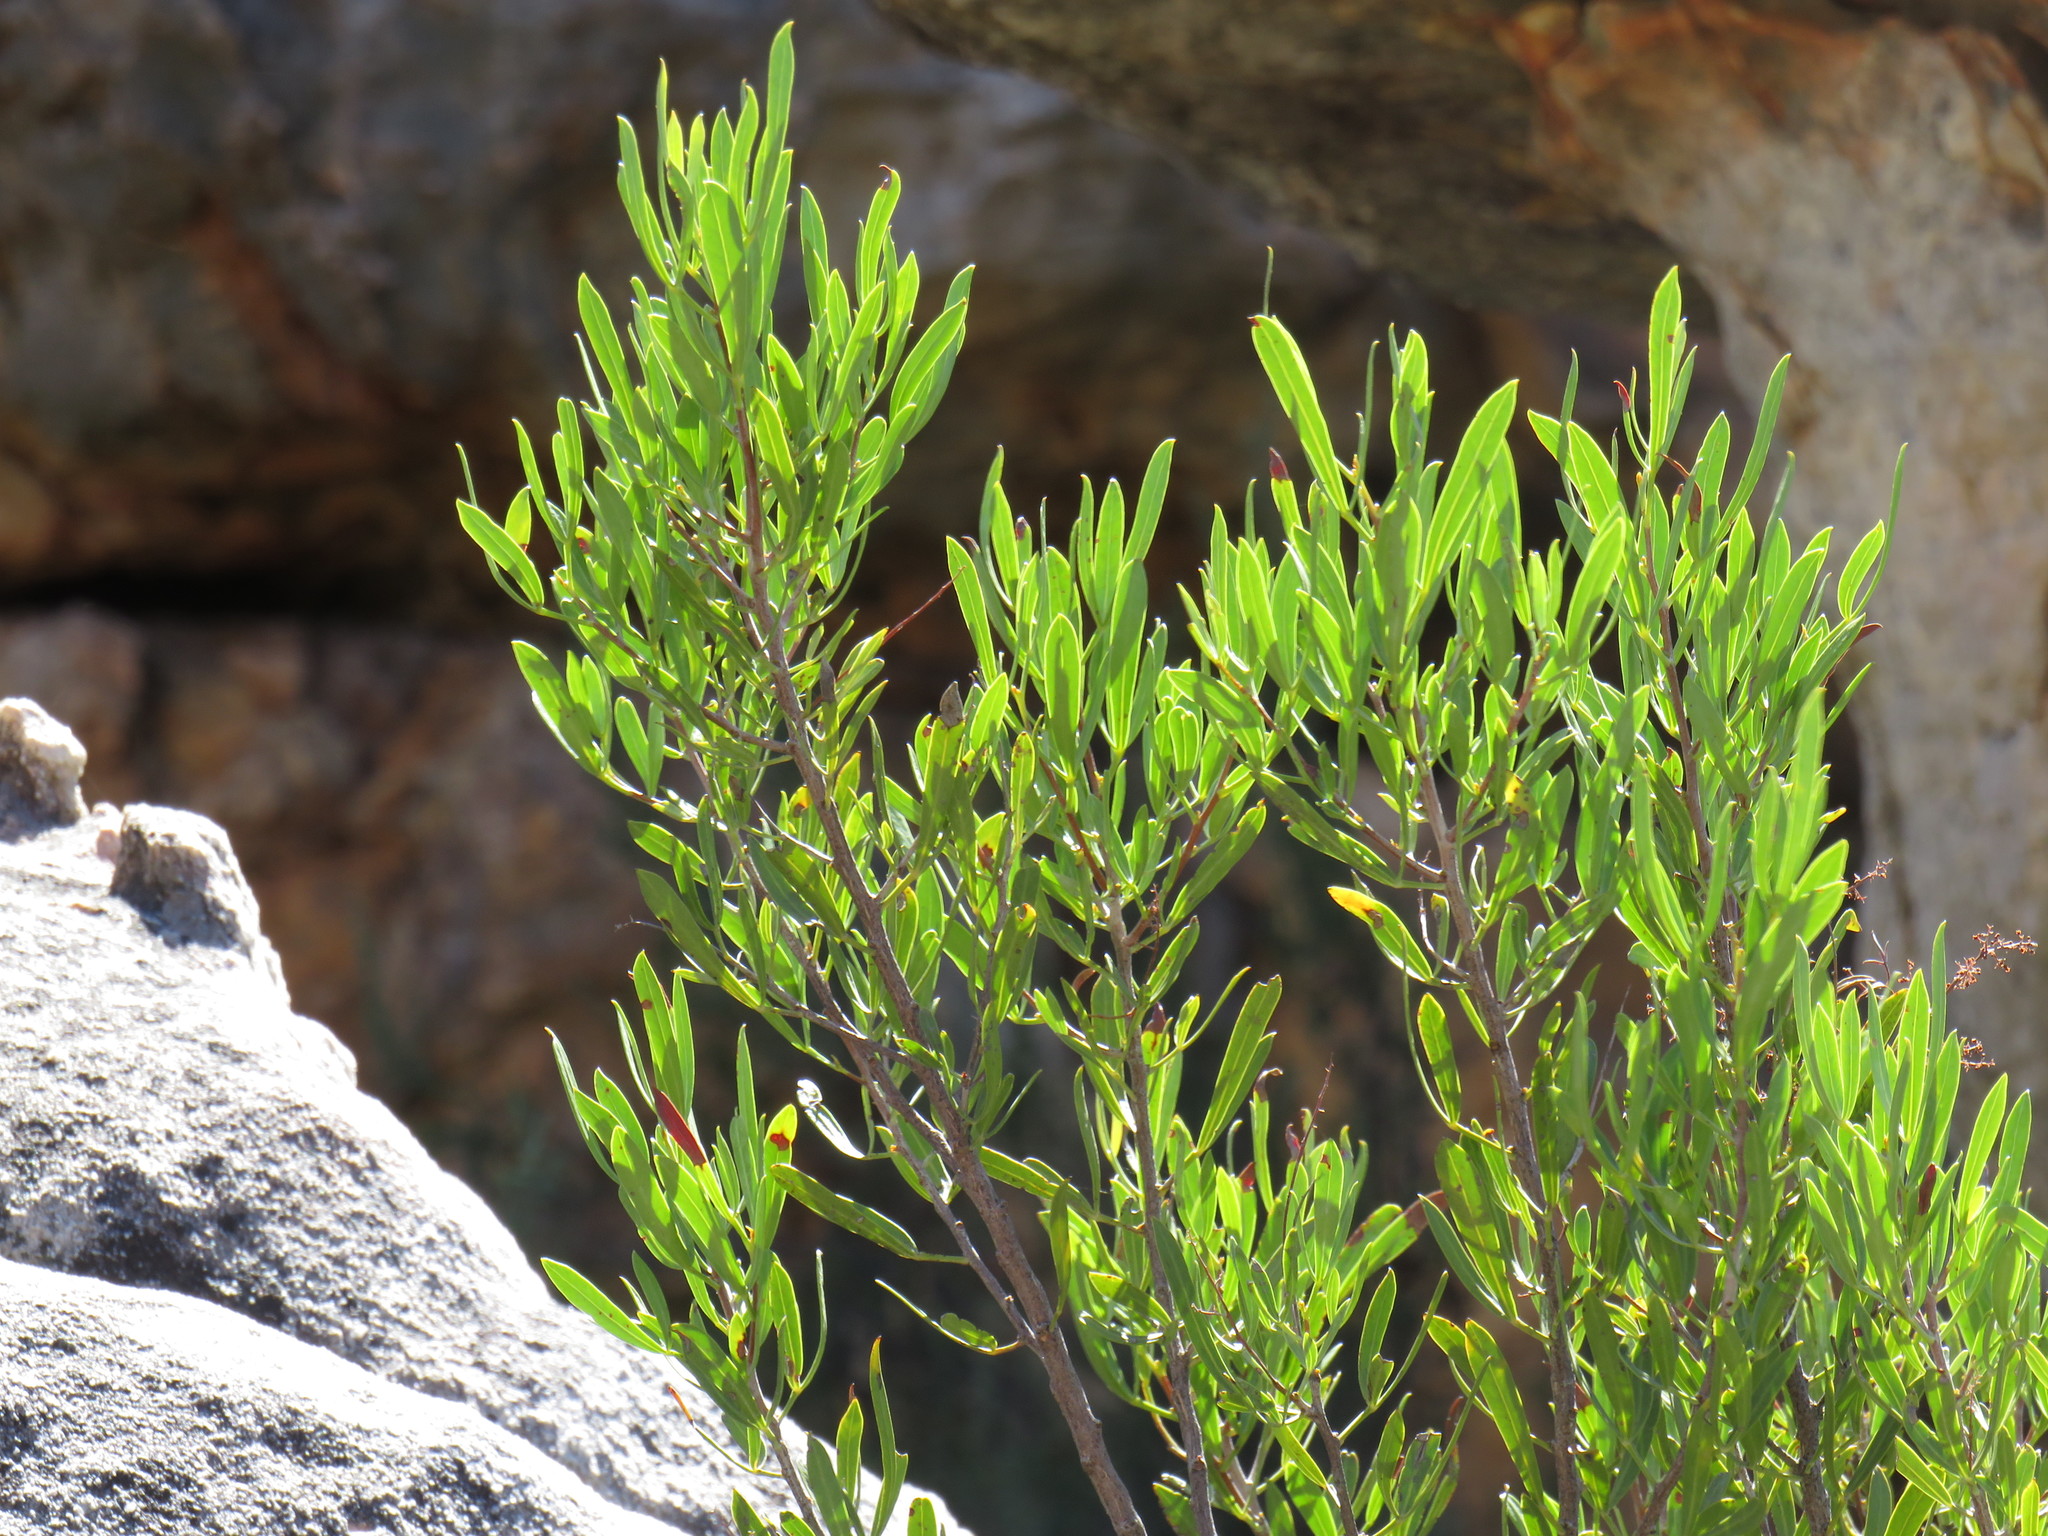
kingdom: Plantae
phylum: Tracheophyta
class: Magnoliopsida
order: Sapindales
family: Anacardiaceae
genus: Searsia
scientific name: Searsia rimosa
